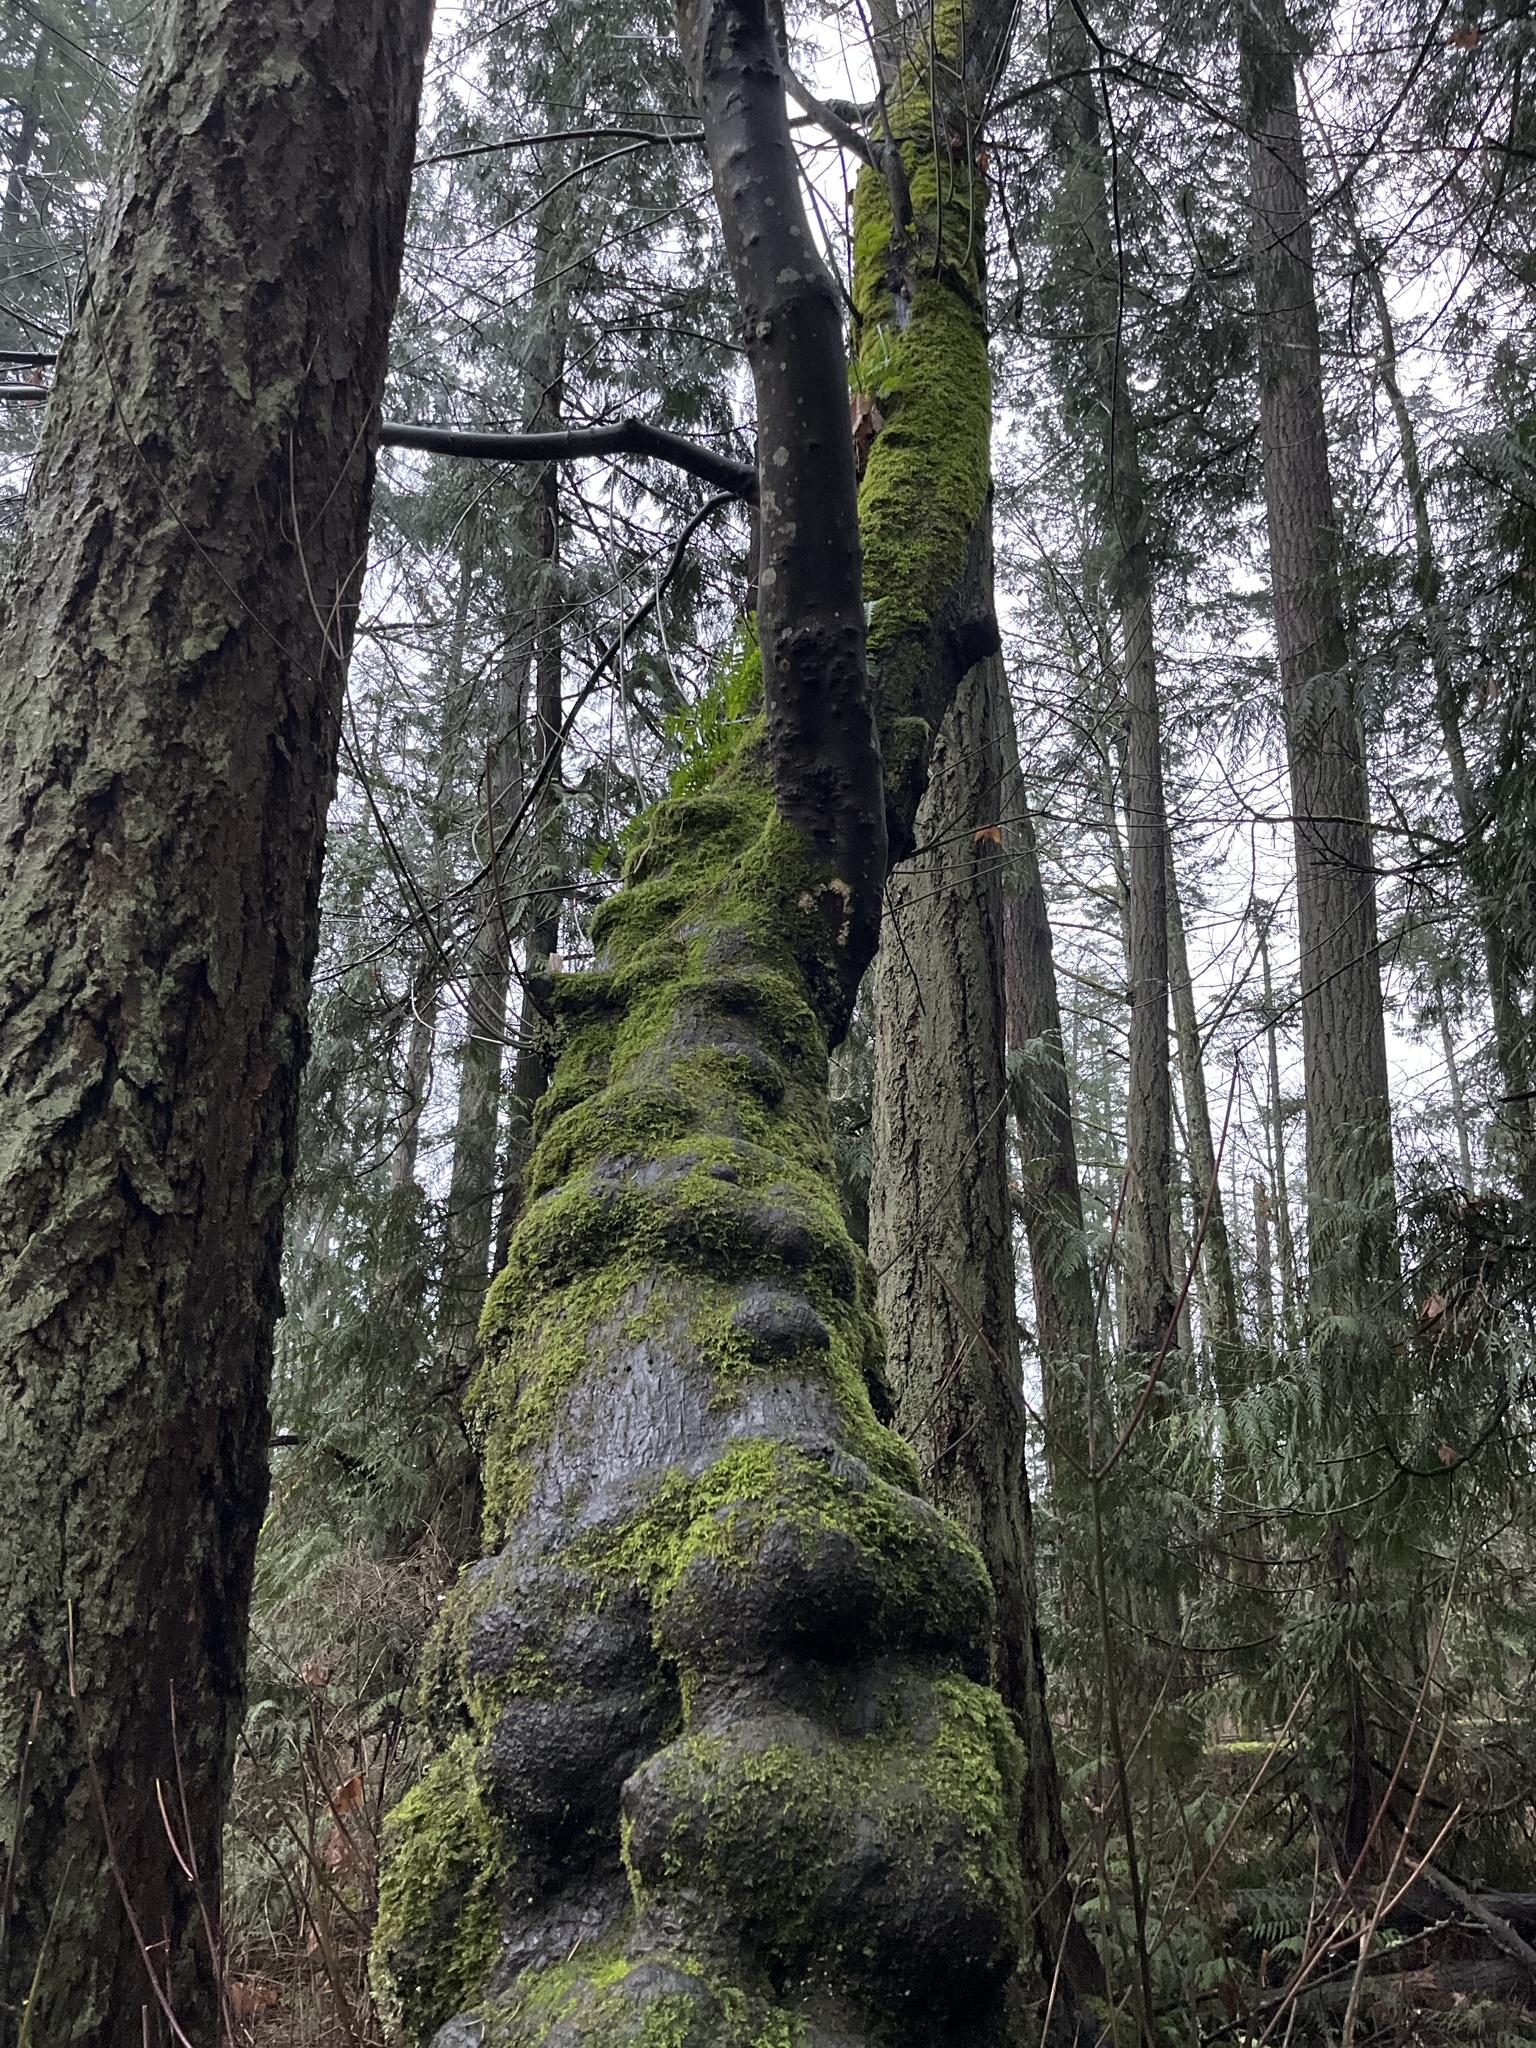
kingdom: Plantae
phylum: Tracheophyta
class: Magnoliopsida
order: Sapindales
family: Sapindaceae
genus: Acer
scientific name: Acer macrophyllum
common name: Oregon maple
